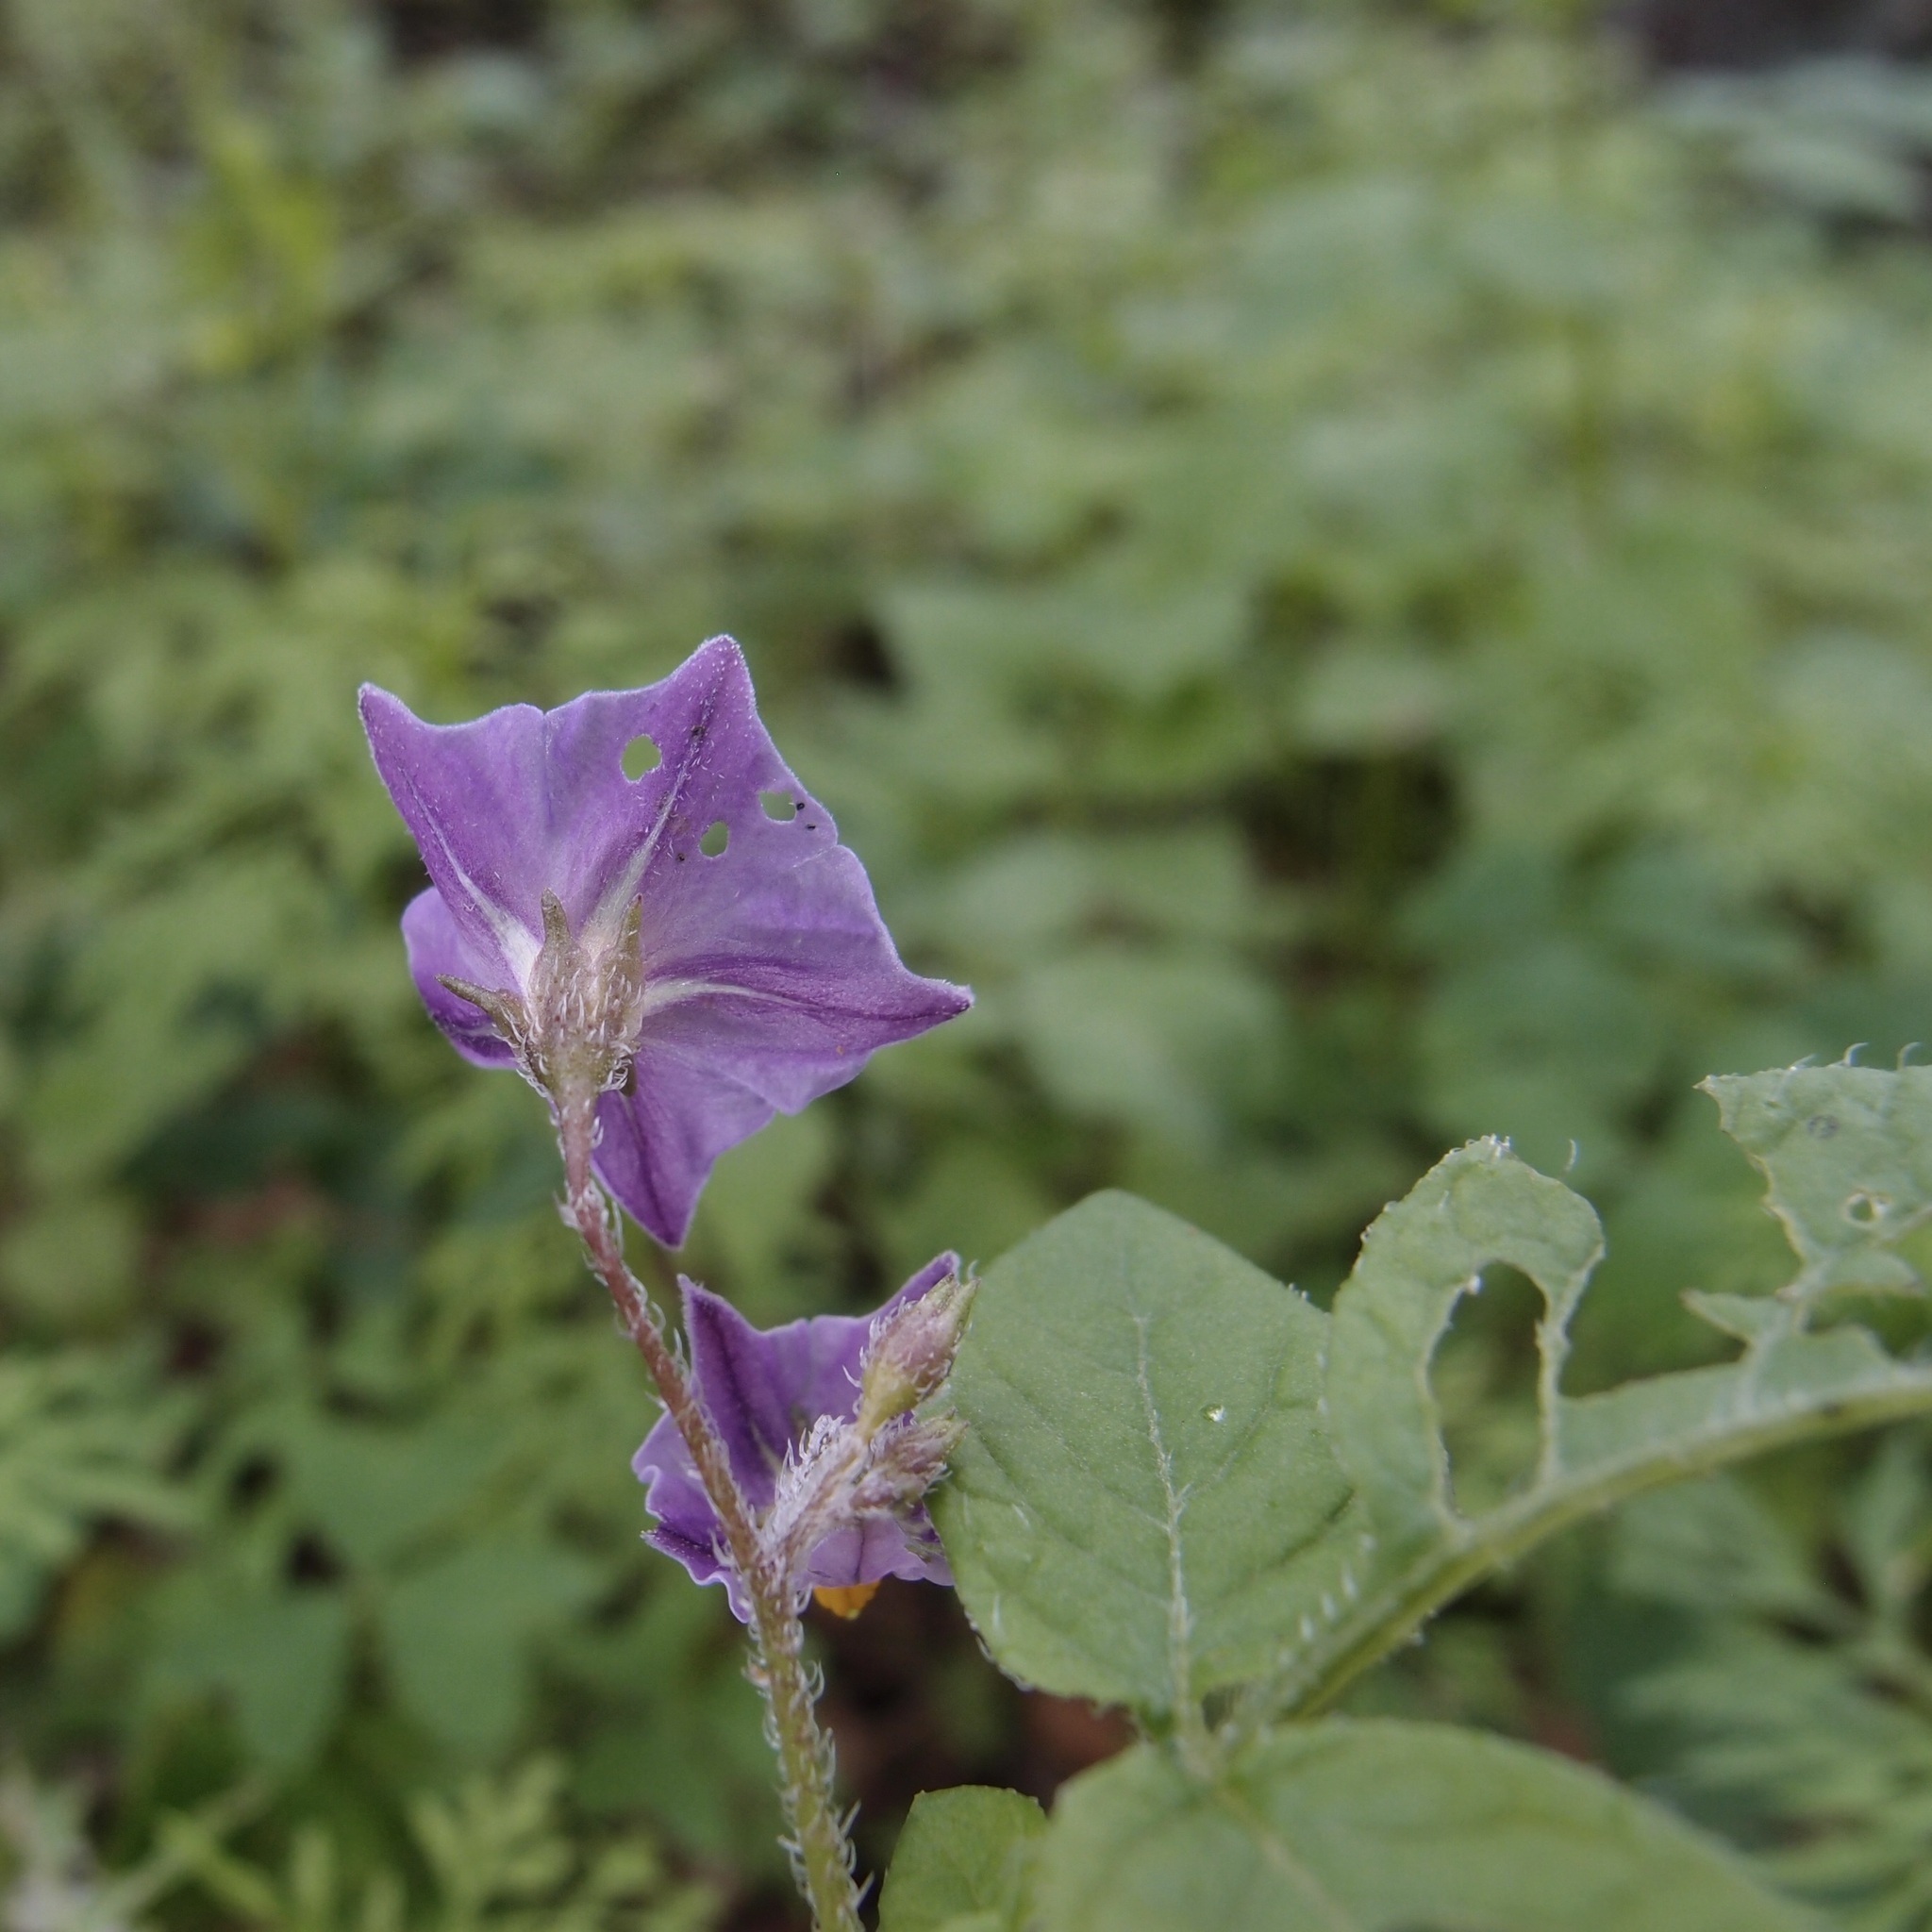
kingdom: Plantae
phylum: Tracheophyta
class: Magnoliopsida
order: Solanales
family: Solanaceae
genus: Solanum
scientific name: Solanum stoloniferum
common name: Fendler's nighshade
